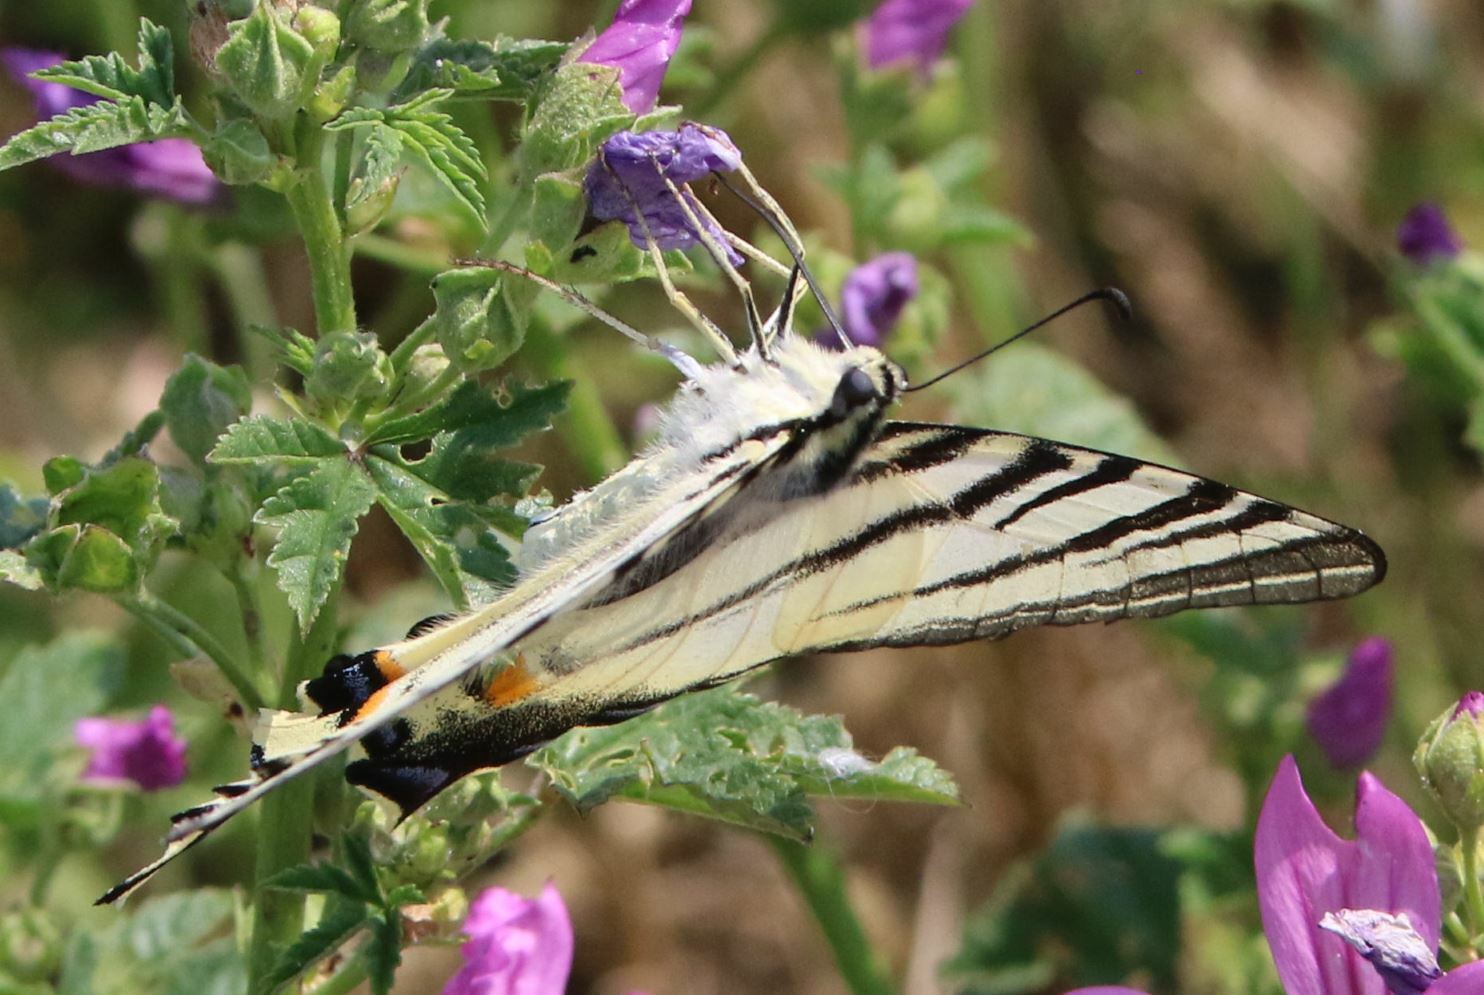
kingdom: Animalia
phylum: Arthropoda
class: Insecta
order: Lepidoptera
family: Papilionidae
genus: Iphiclides
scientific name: Iphiclides podalirius
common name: Scarce swallowtail
